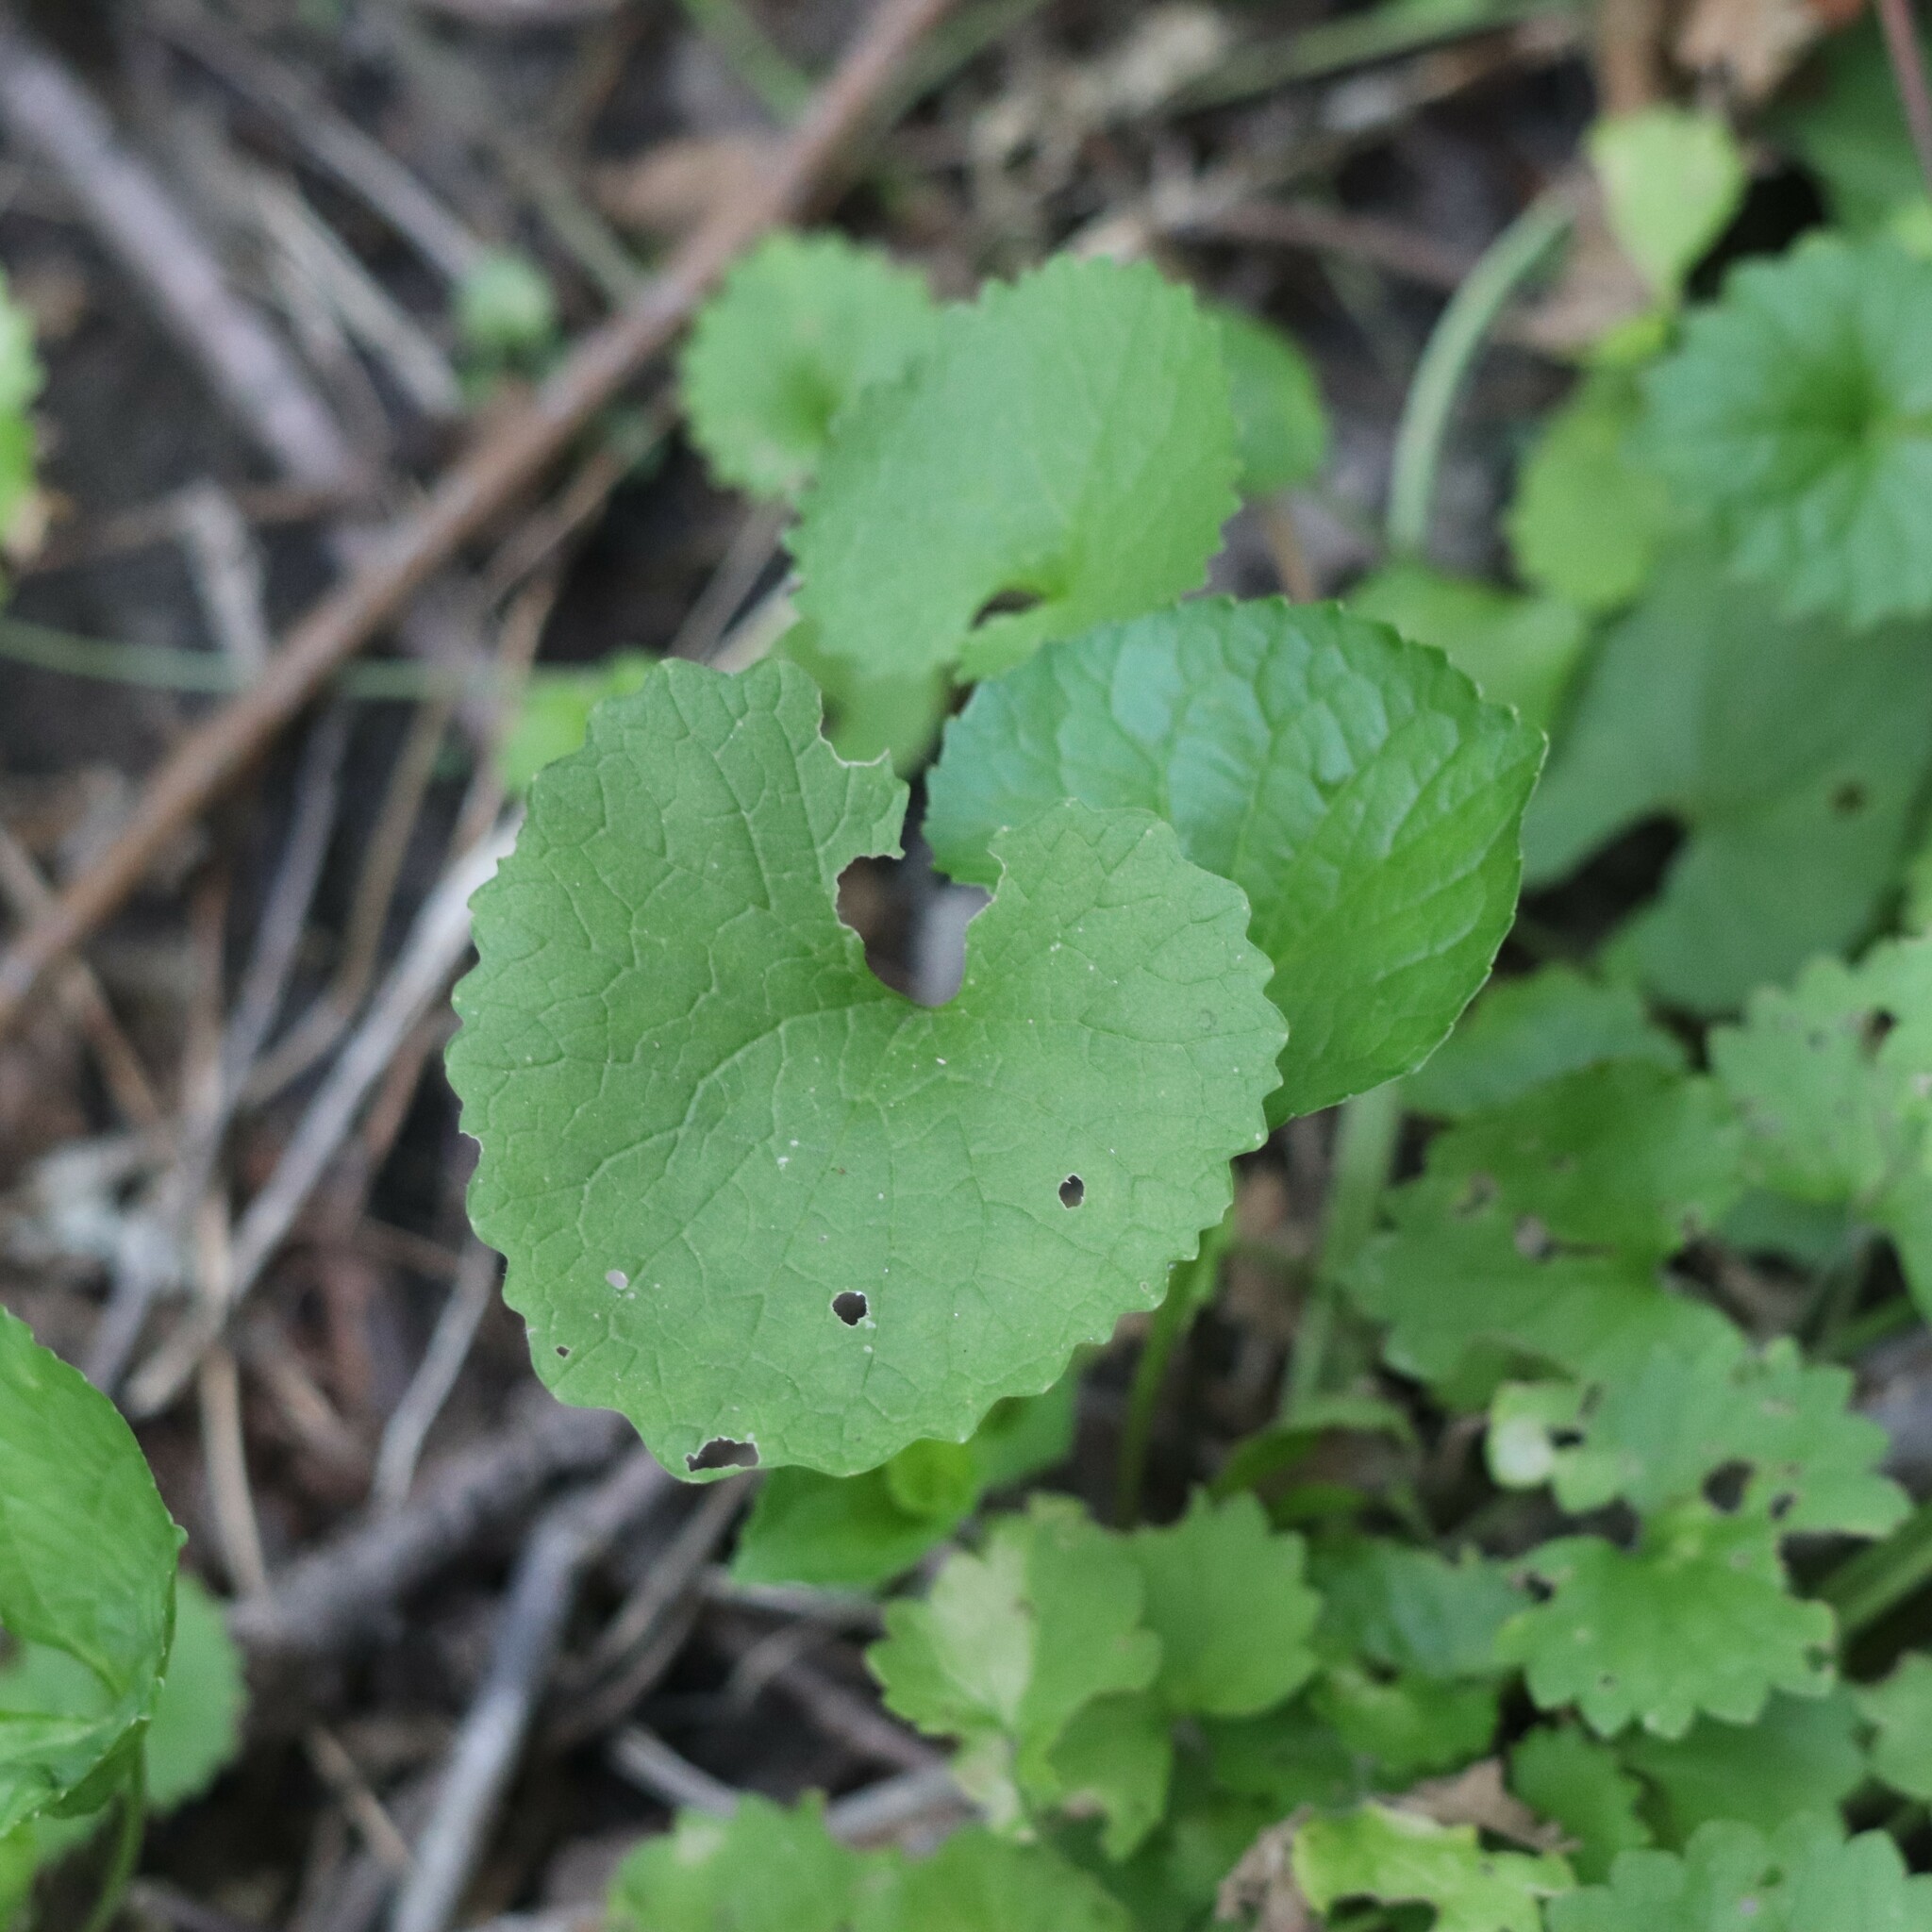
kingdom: Plantae
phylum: Tracheophyta
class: Magnoliopsida
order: Brassicales
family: Brassicaceae
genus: Alliaria
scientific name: Alliaria petiolata
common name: Garlic mustard
